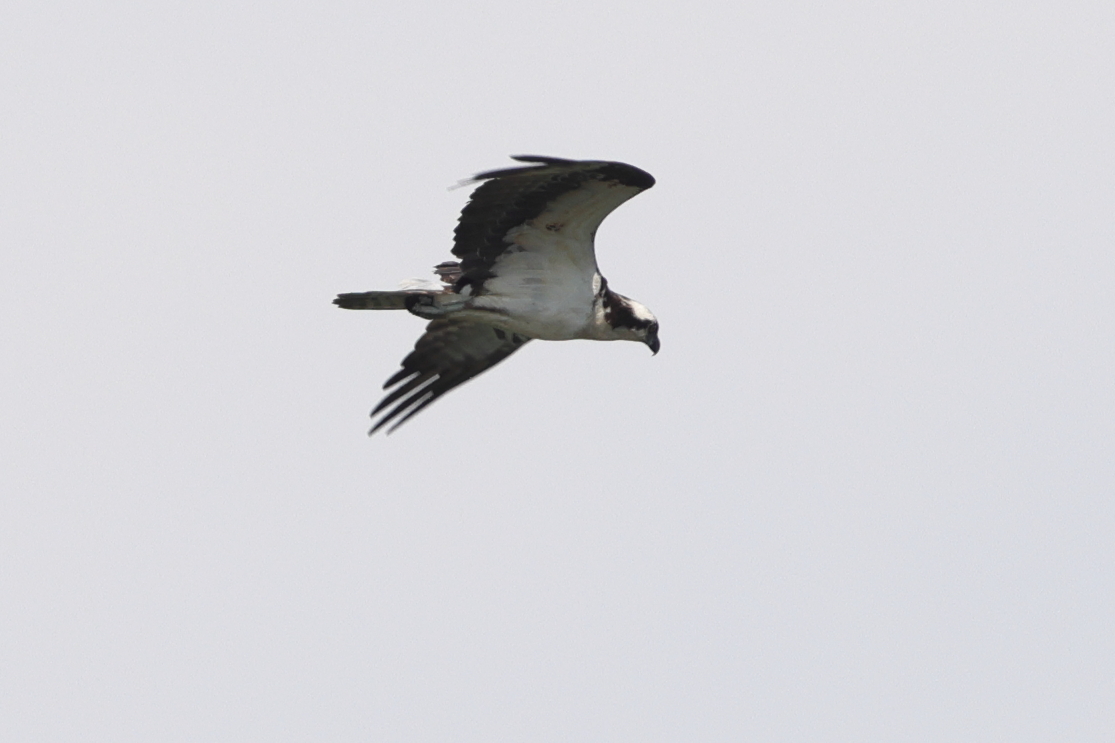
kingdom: Animalia
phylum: Chordata
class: Aves
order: Accipitriformes
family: Pandionidae
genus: Pandion
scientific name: Pandion haliaetus
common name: Osprey
